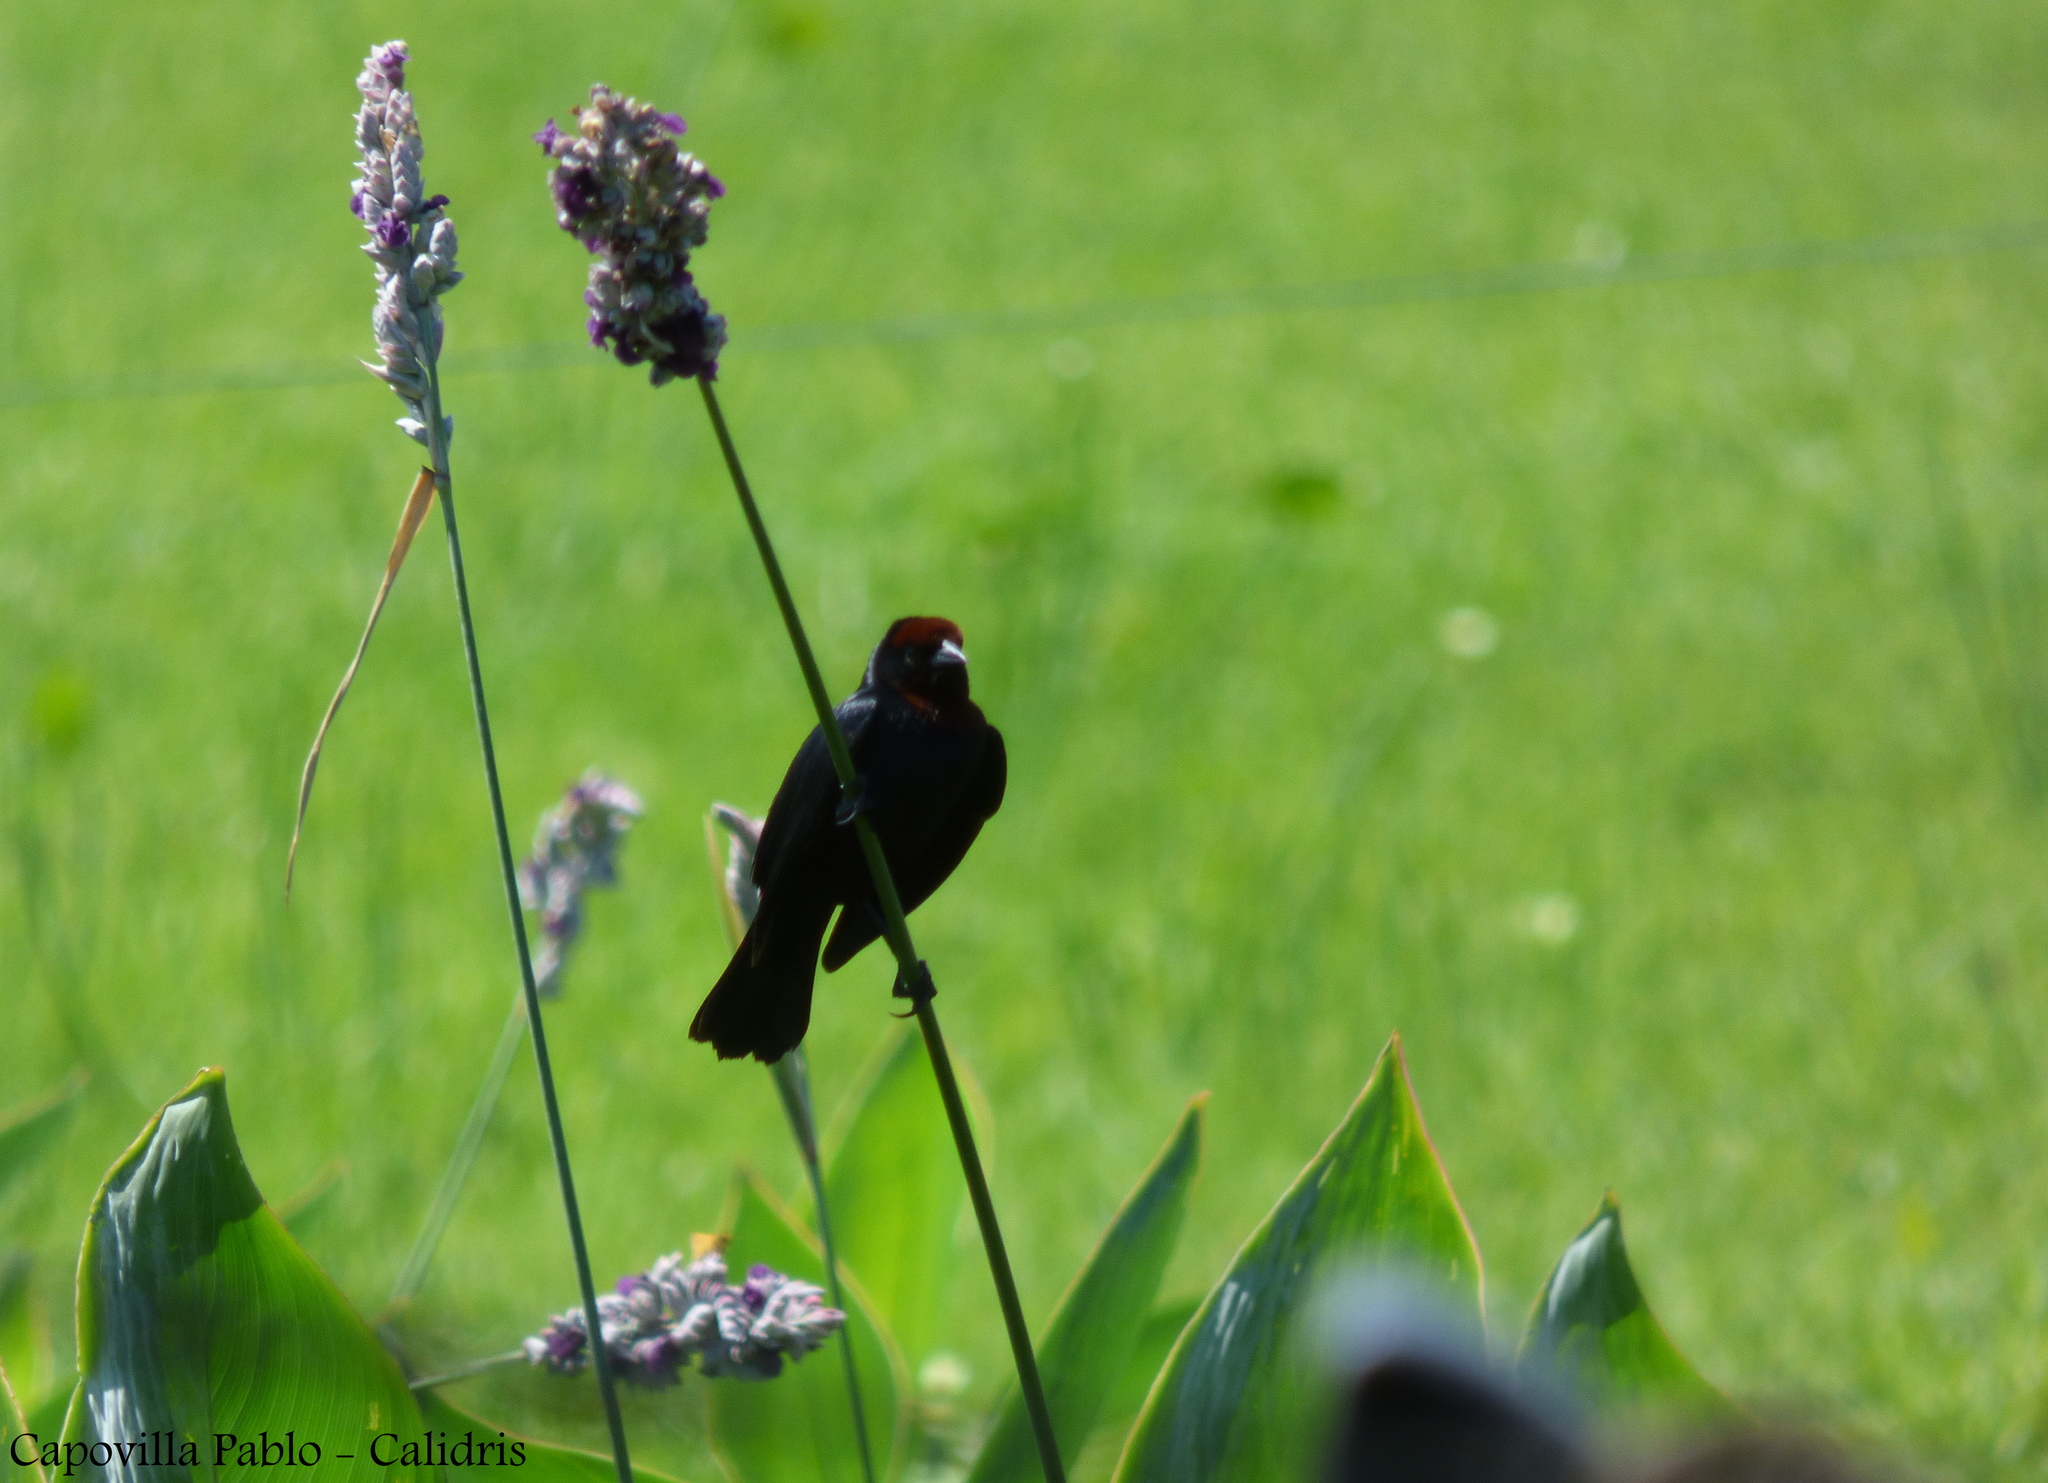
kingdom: Animalia
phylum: Chordata
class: Aves
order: Passeriformes
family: Icteridae
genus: Chrysomus
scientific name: Chrysomus ruficapillus
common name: Chestnut-capped blackbird
